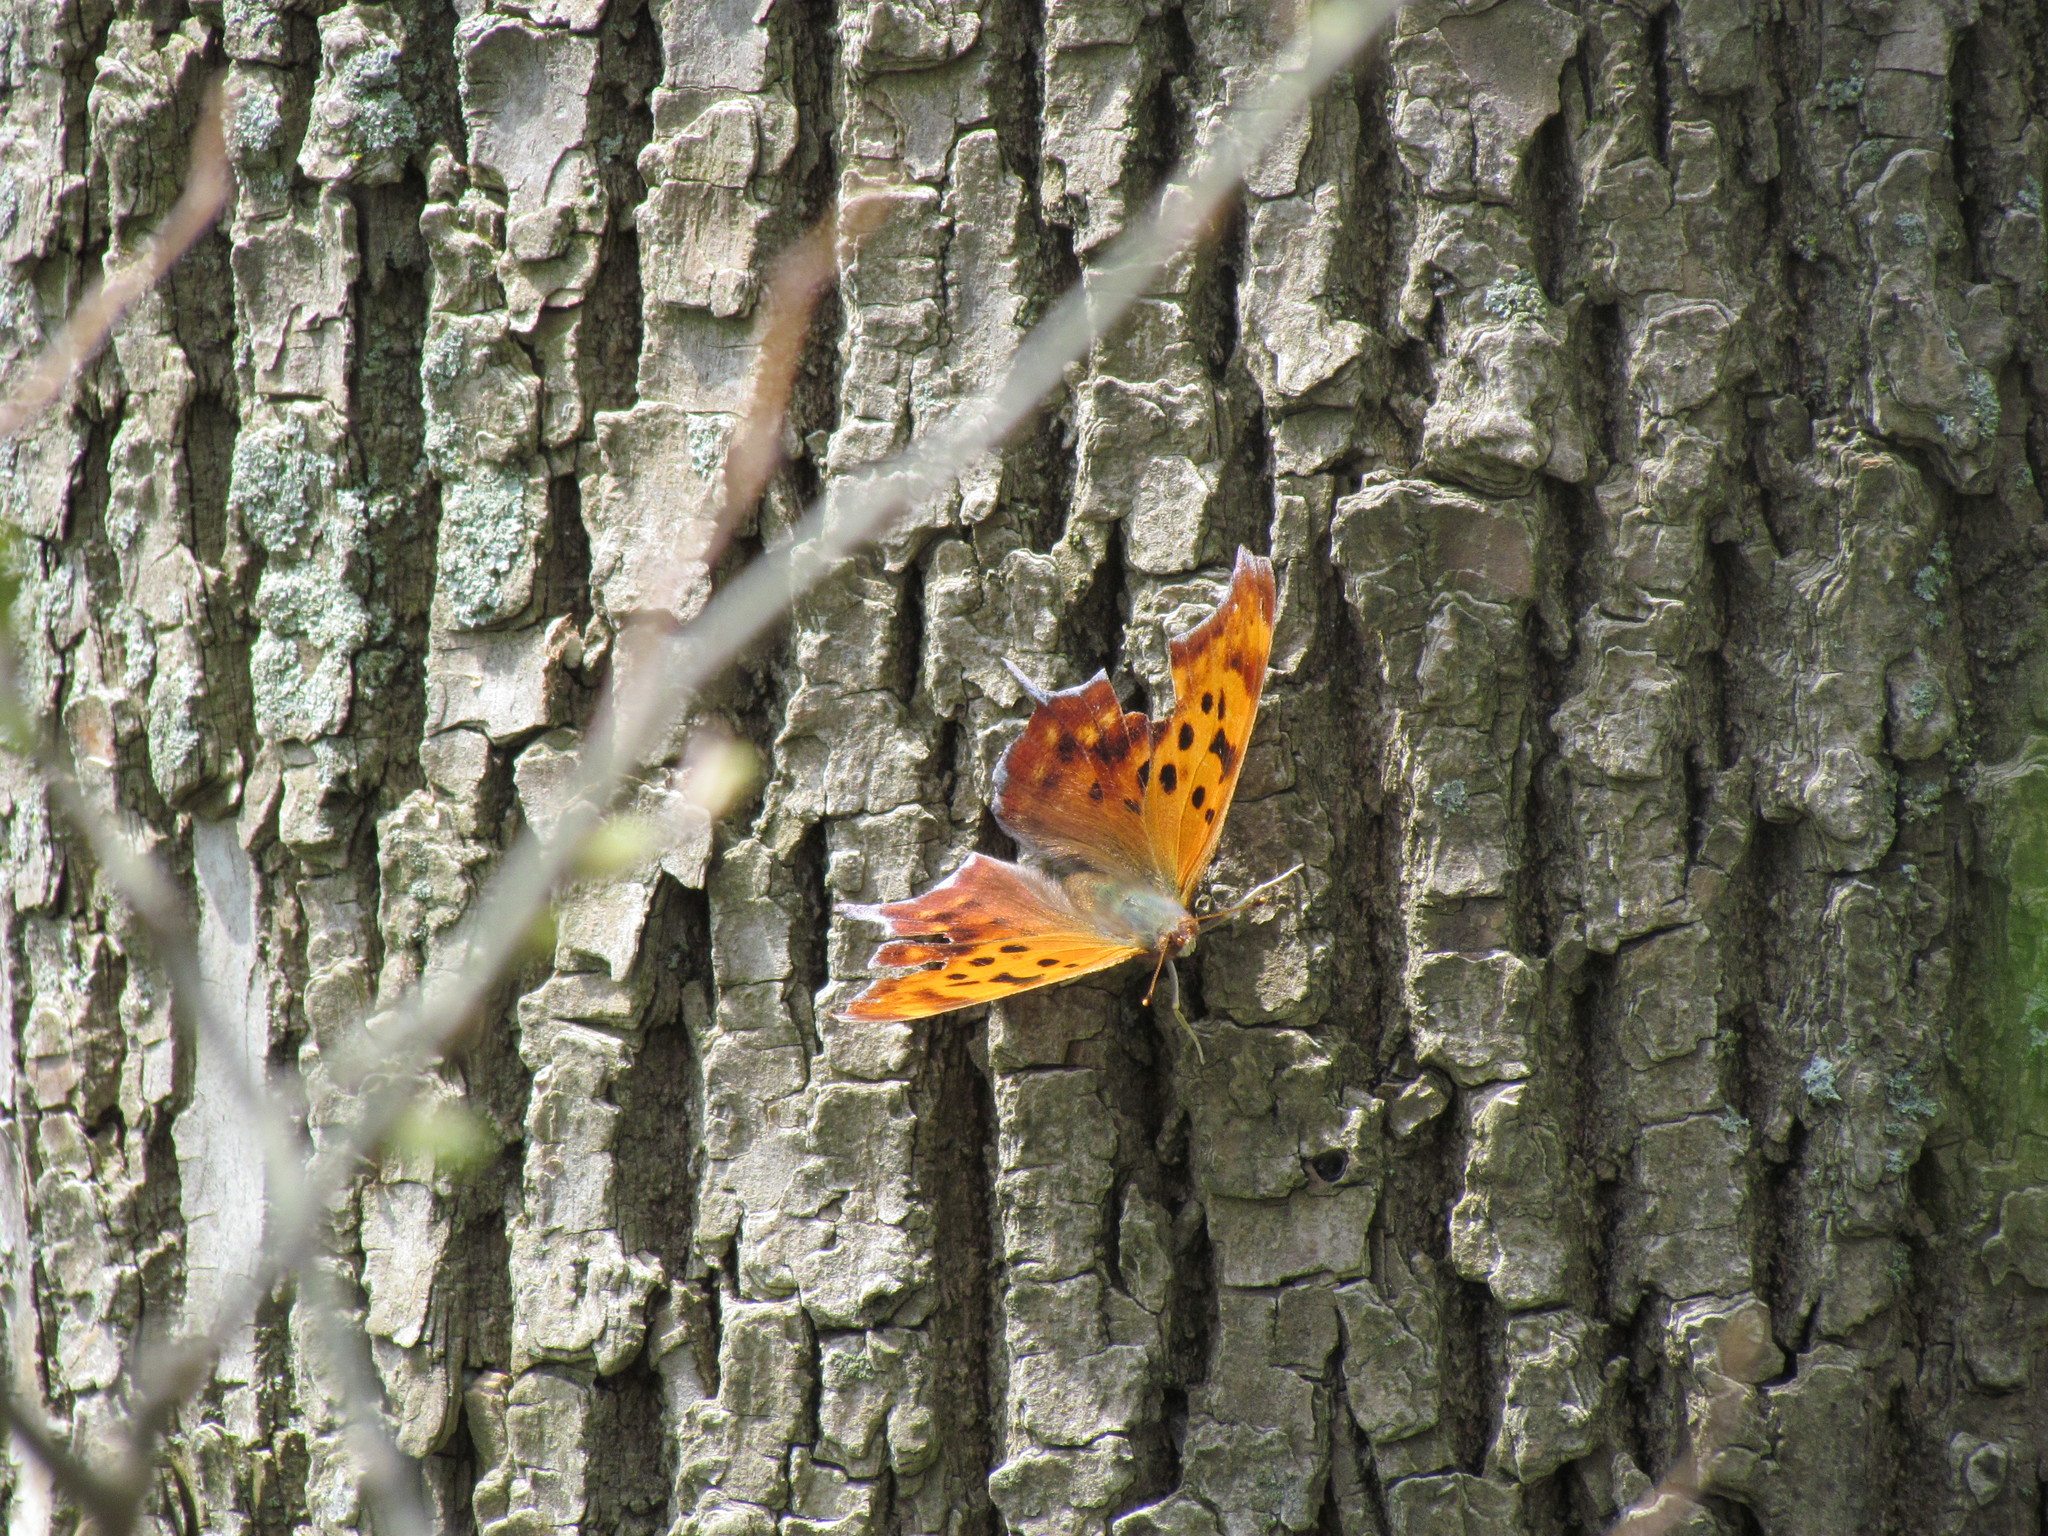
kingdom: Animalia
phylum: Arthropoda
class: Insecta
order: Lepidoptera
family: Nymphalidae
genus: Polygonia
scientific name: Polygonia interrogationis
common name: Question mark
